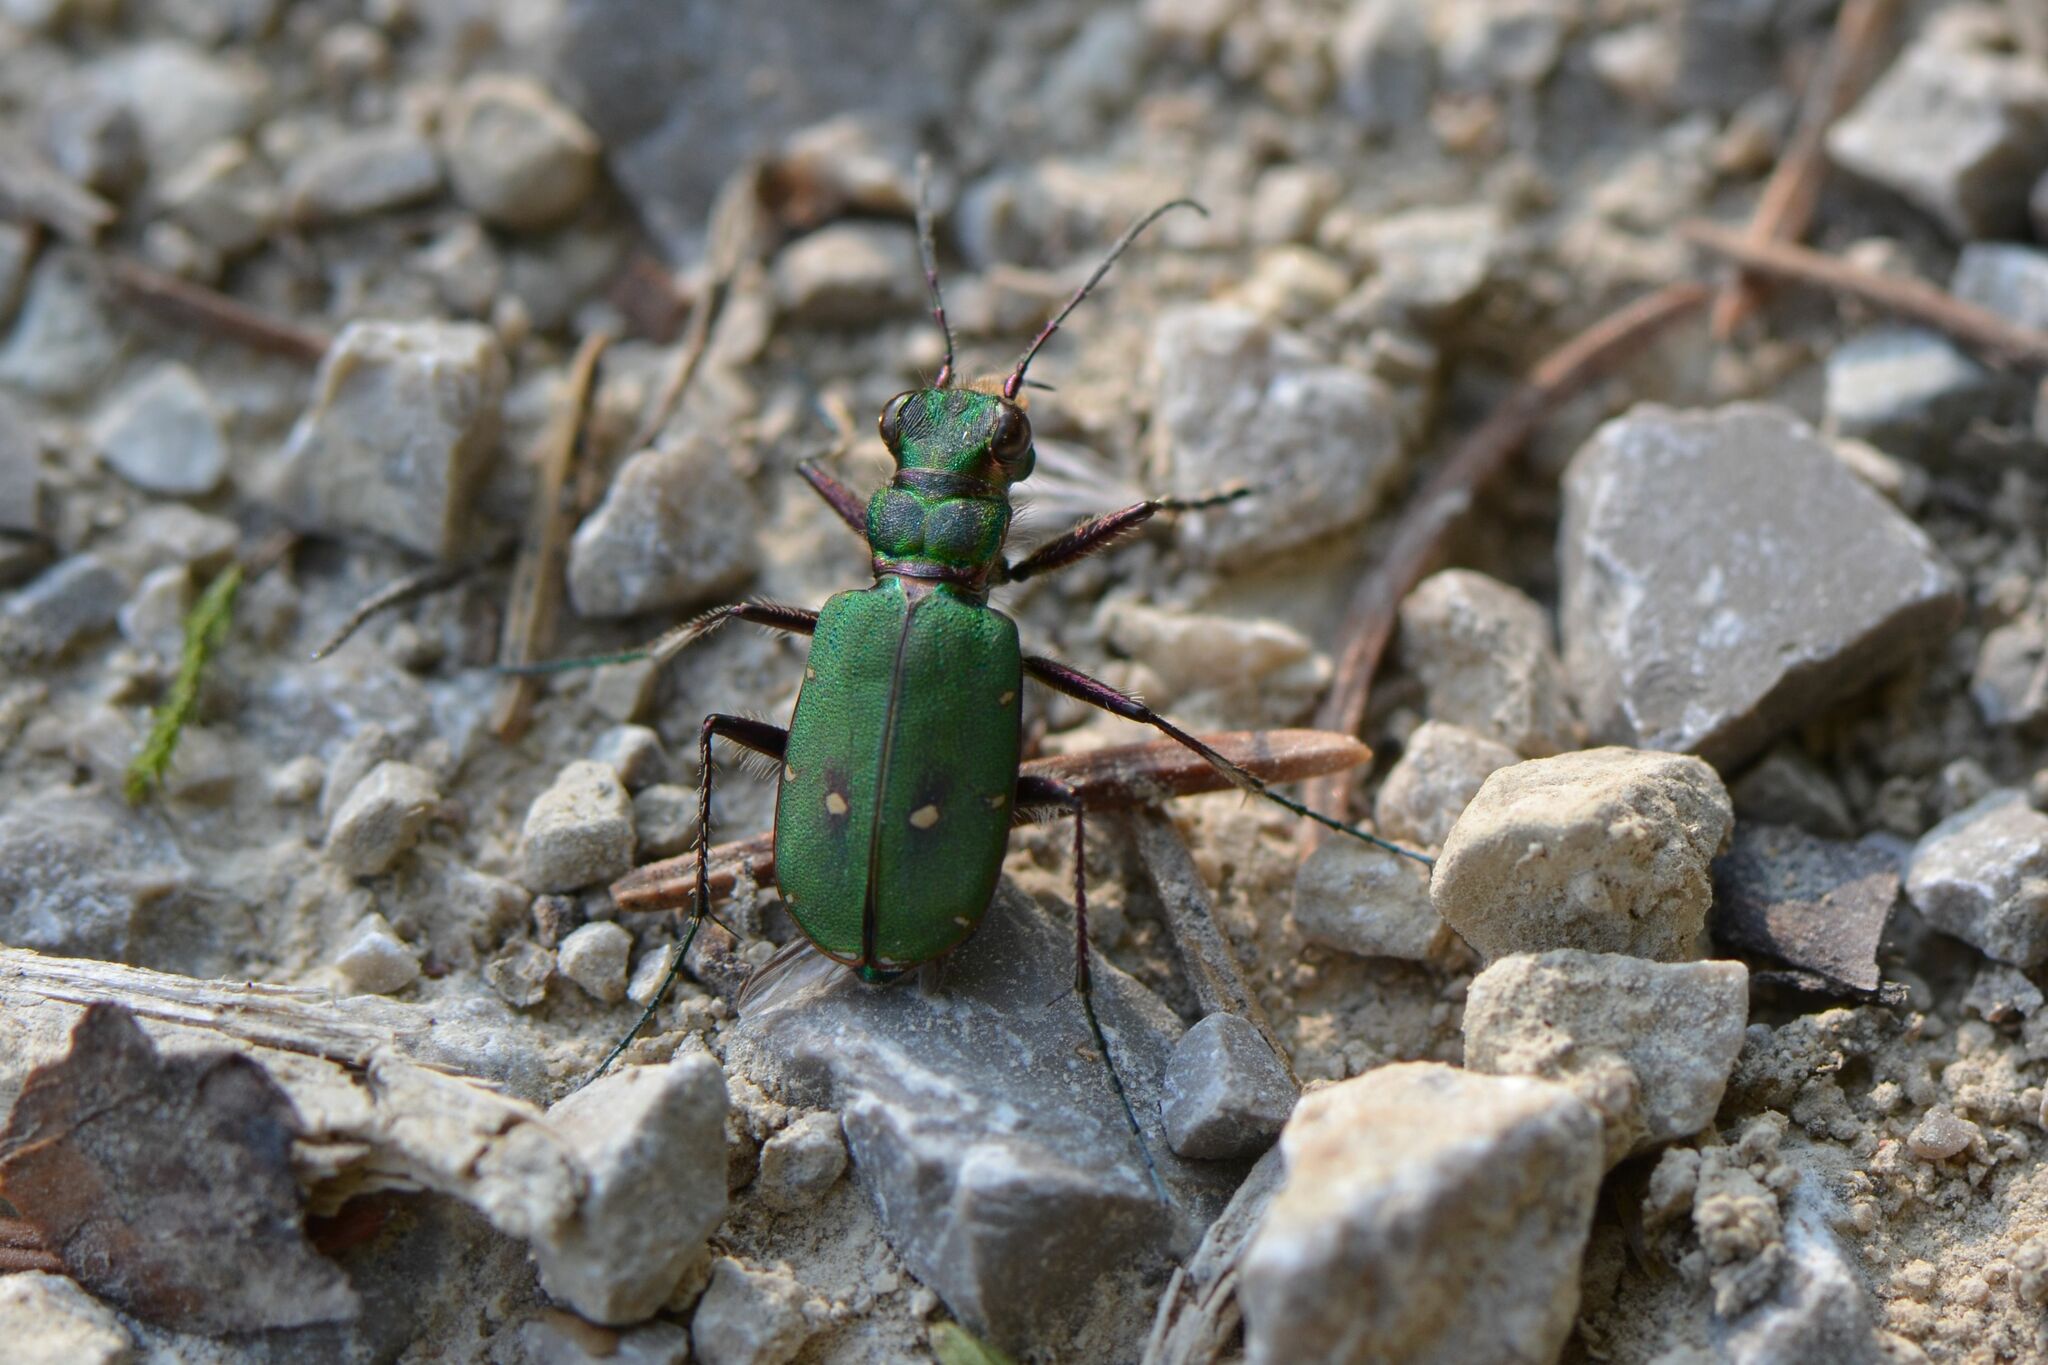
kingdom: Animalia
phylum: Arthropoda
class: Insecta
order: Coleoptera
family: Carabidae
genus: Cicindela
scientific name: Cicindela campestris
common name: Common tiger beetle
